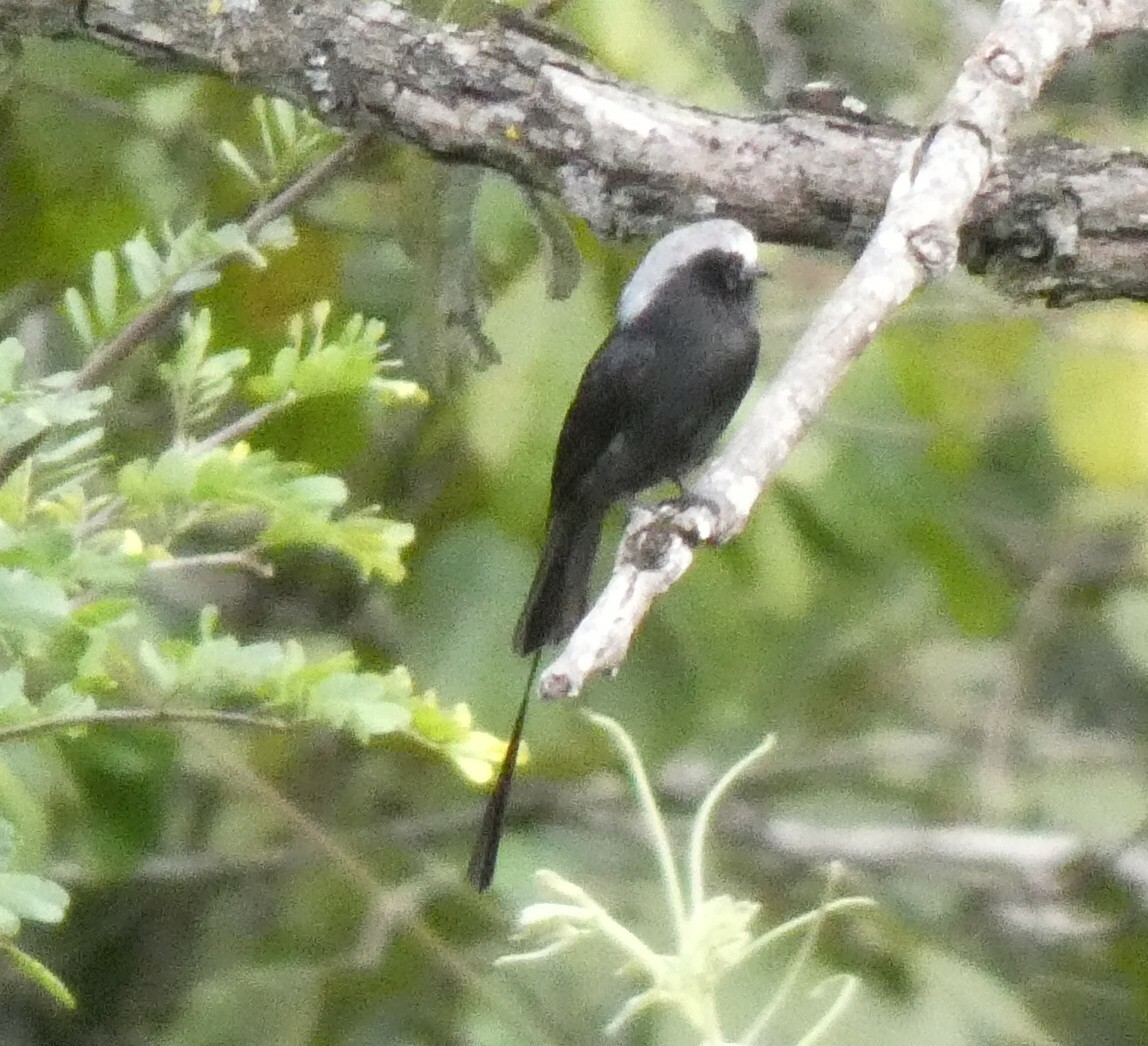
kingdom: Animalia
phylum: Chordata
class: Aves
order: Passeriformes
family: Tyrannidae
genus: Colonia
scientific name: Colonia colonus
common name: Long-tailed tyrant
